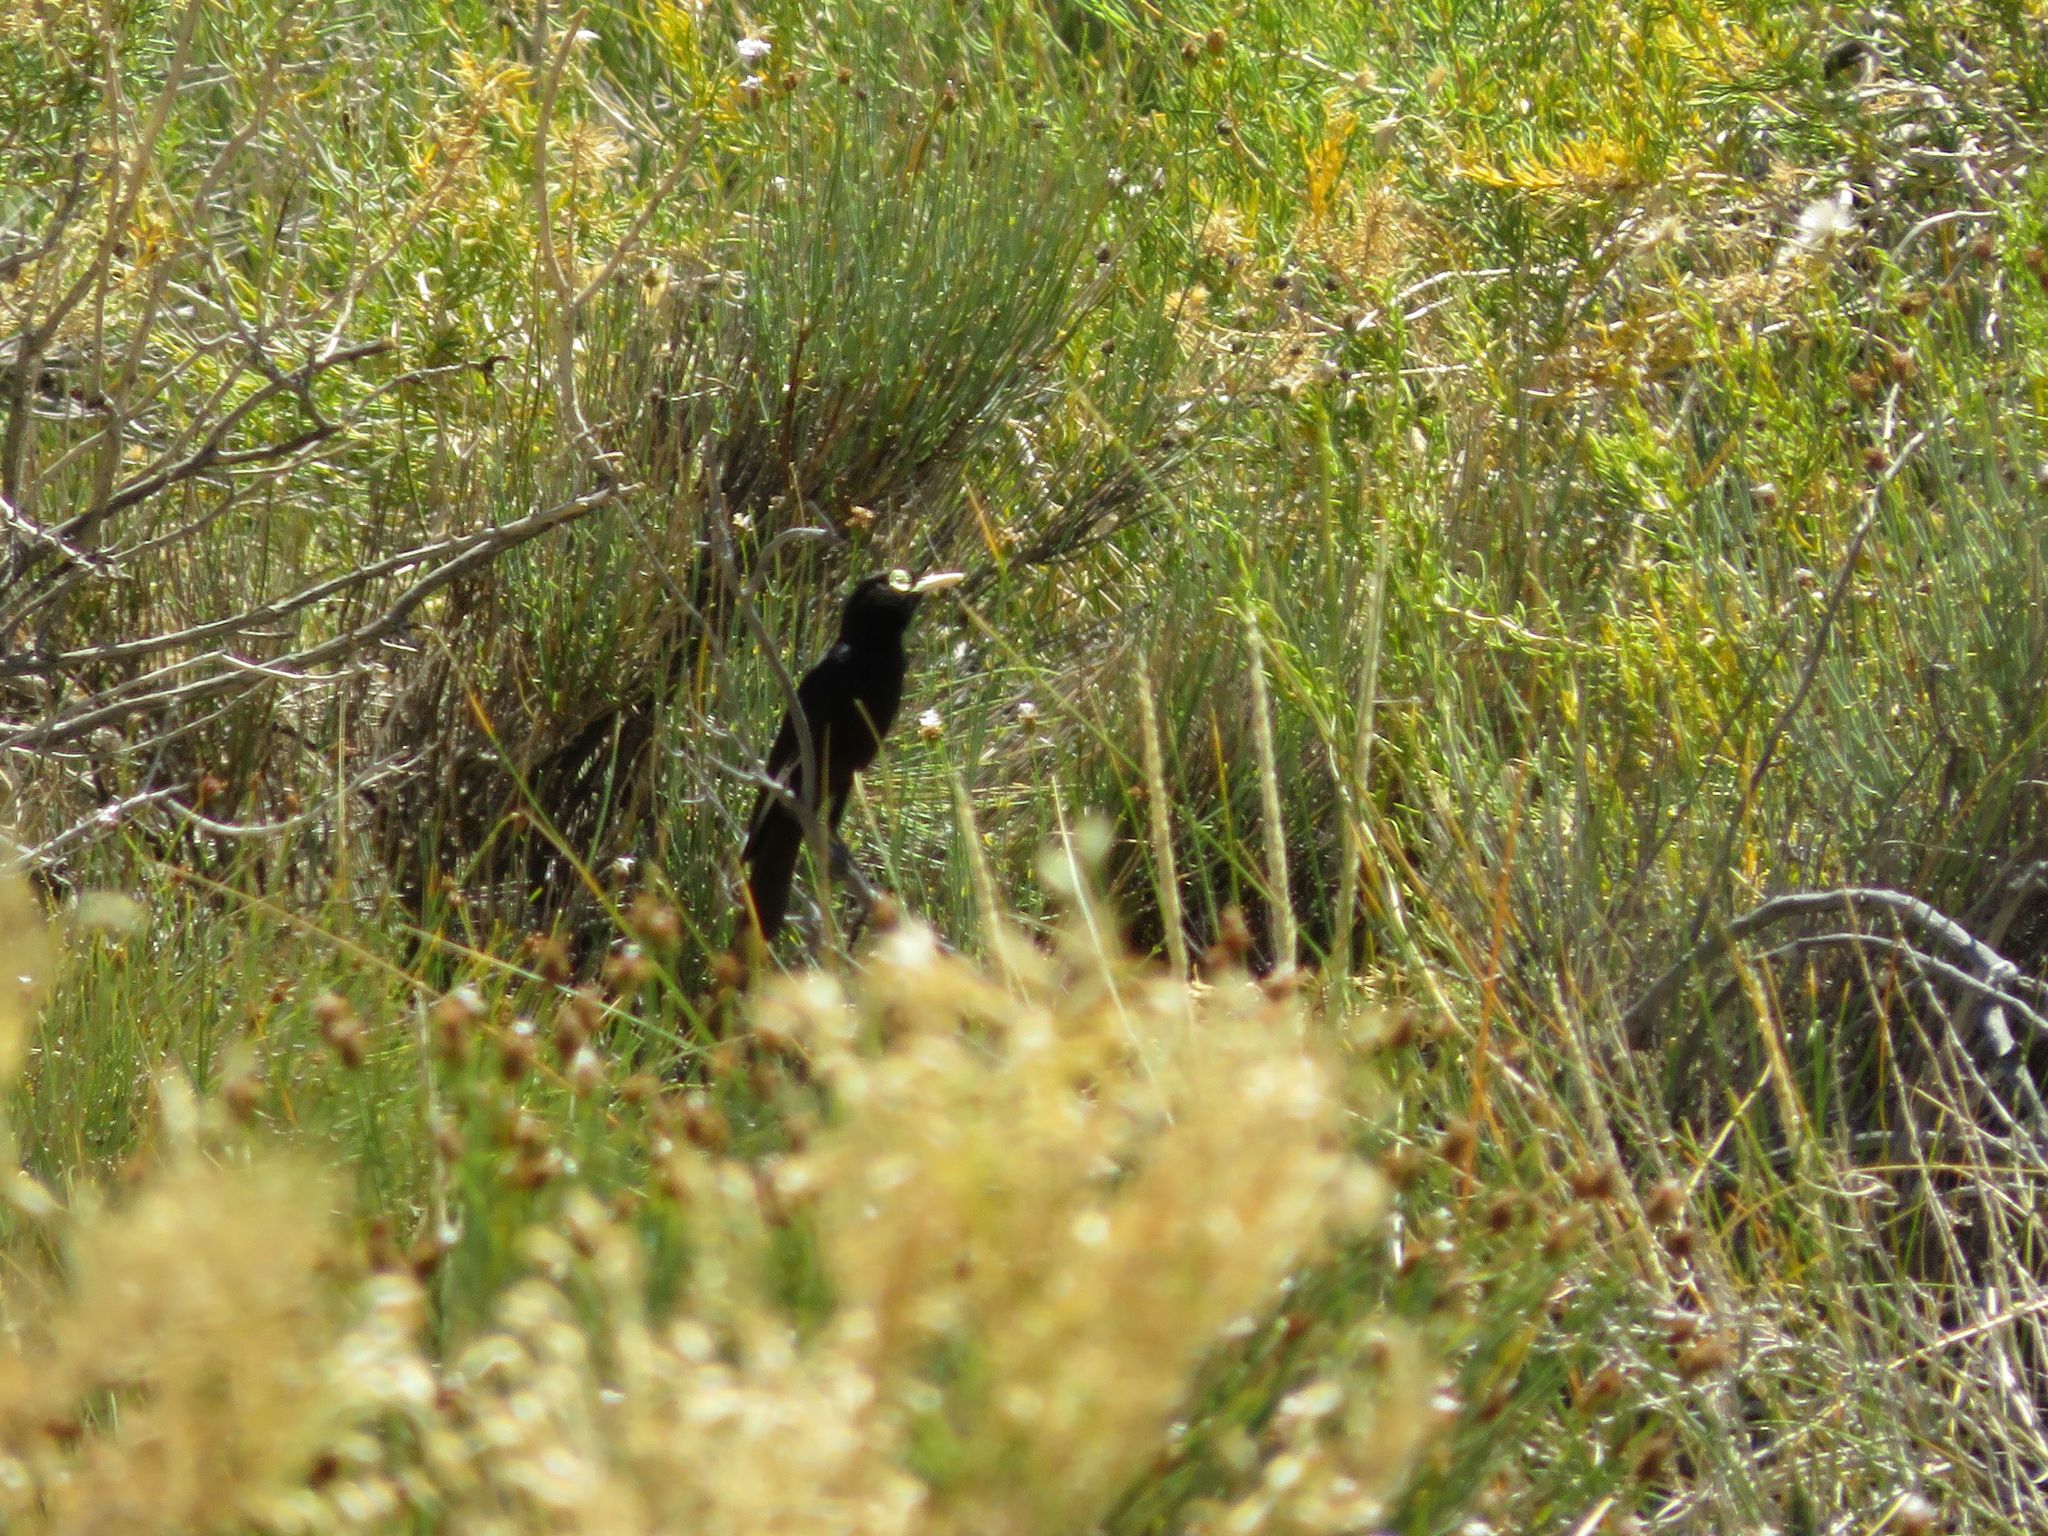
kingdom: Animalia
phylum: Chordata
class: Aves
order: Passeriformes
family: Tyrannidae
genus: Hymenops
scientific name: Hymenops perspicillatus
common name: Spectacled tyrant
